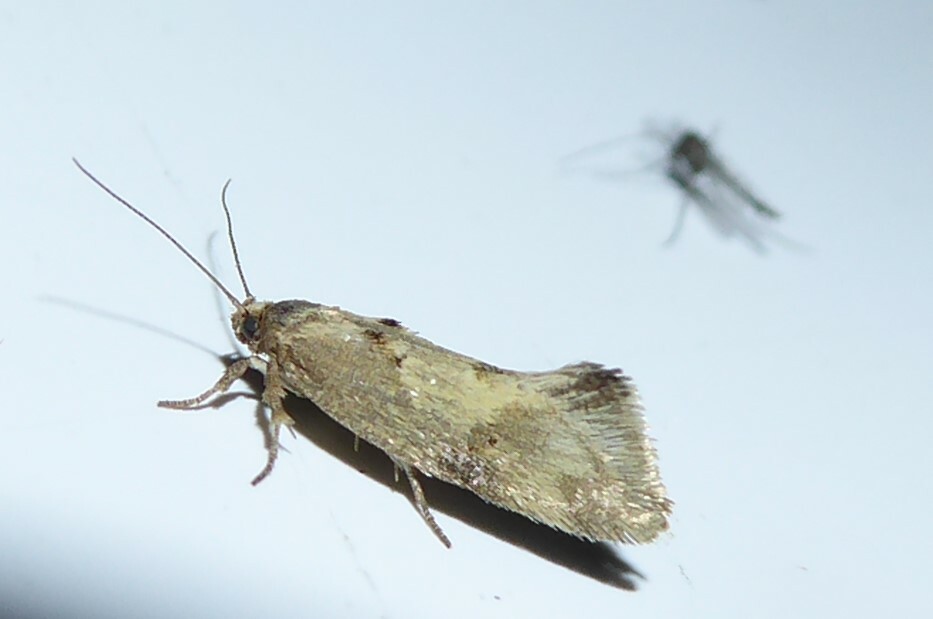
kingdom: Animalia
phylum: Arthropoda
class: Insecta
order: Lepidoptera
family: Oecophoridae
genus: Tingena
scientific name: Tingena brachyacma
